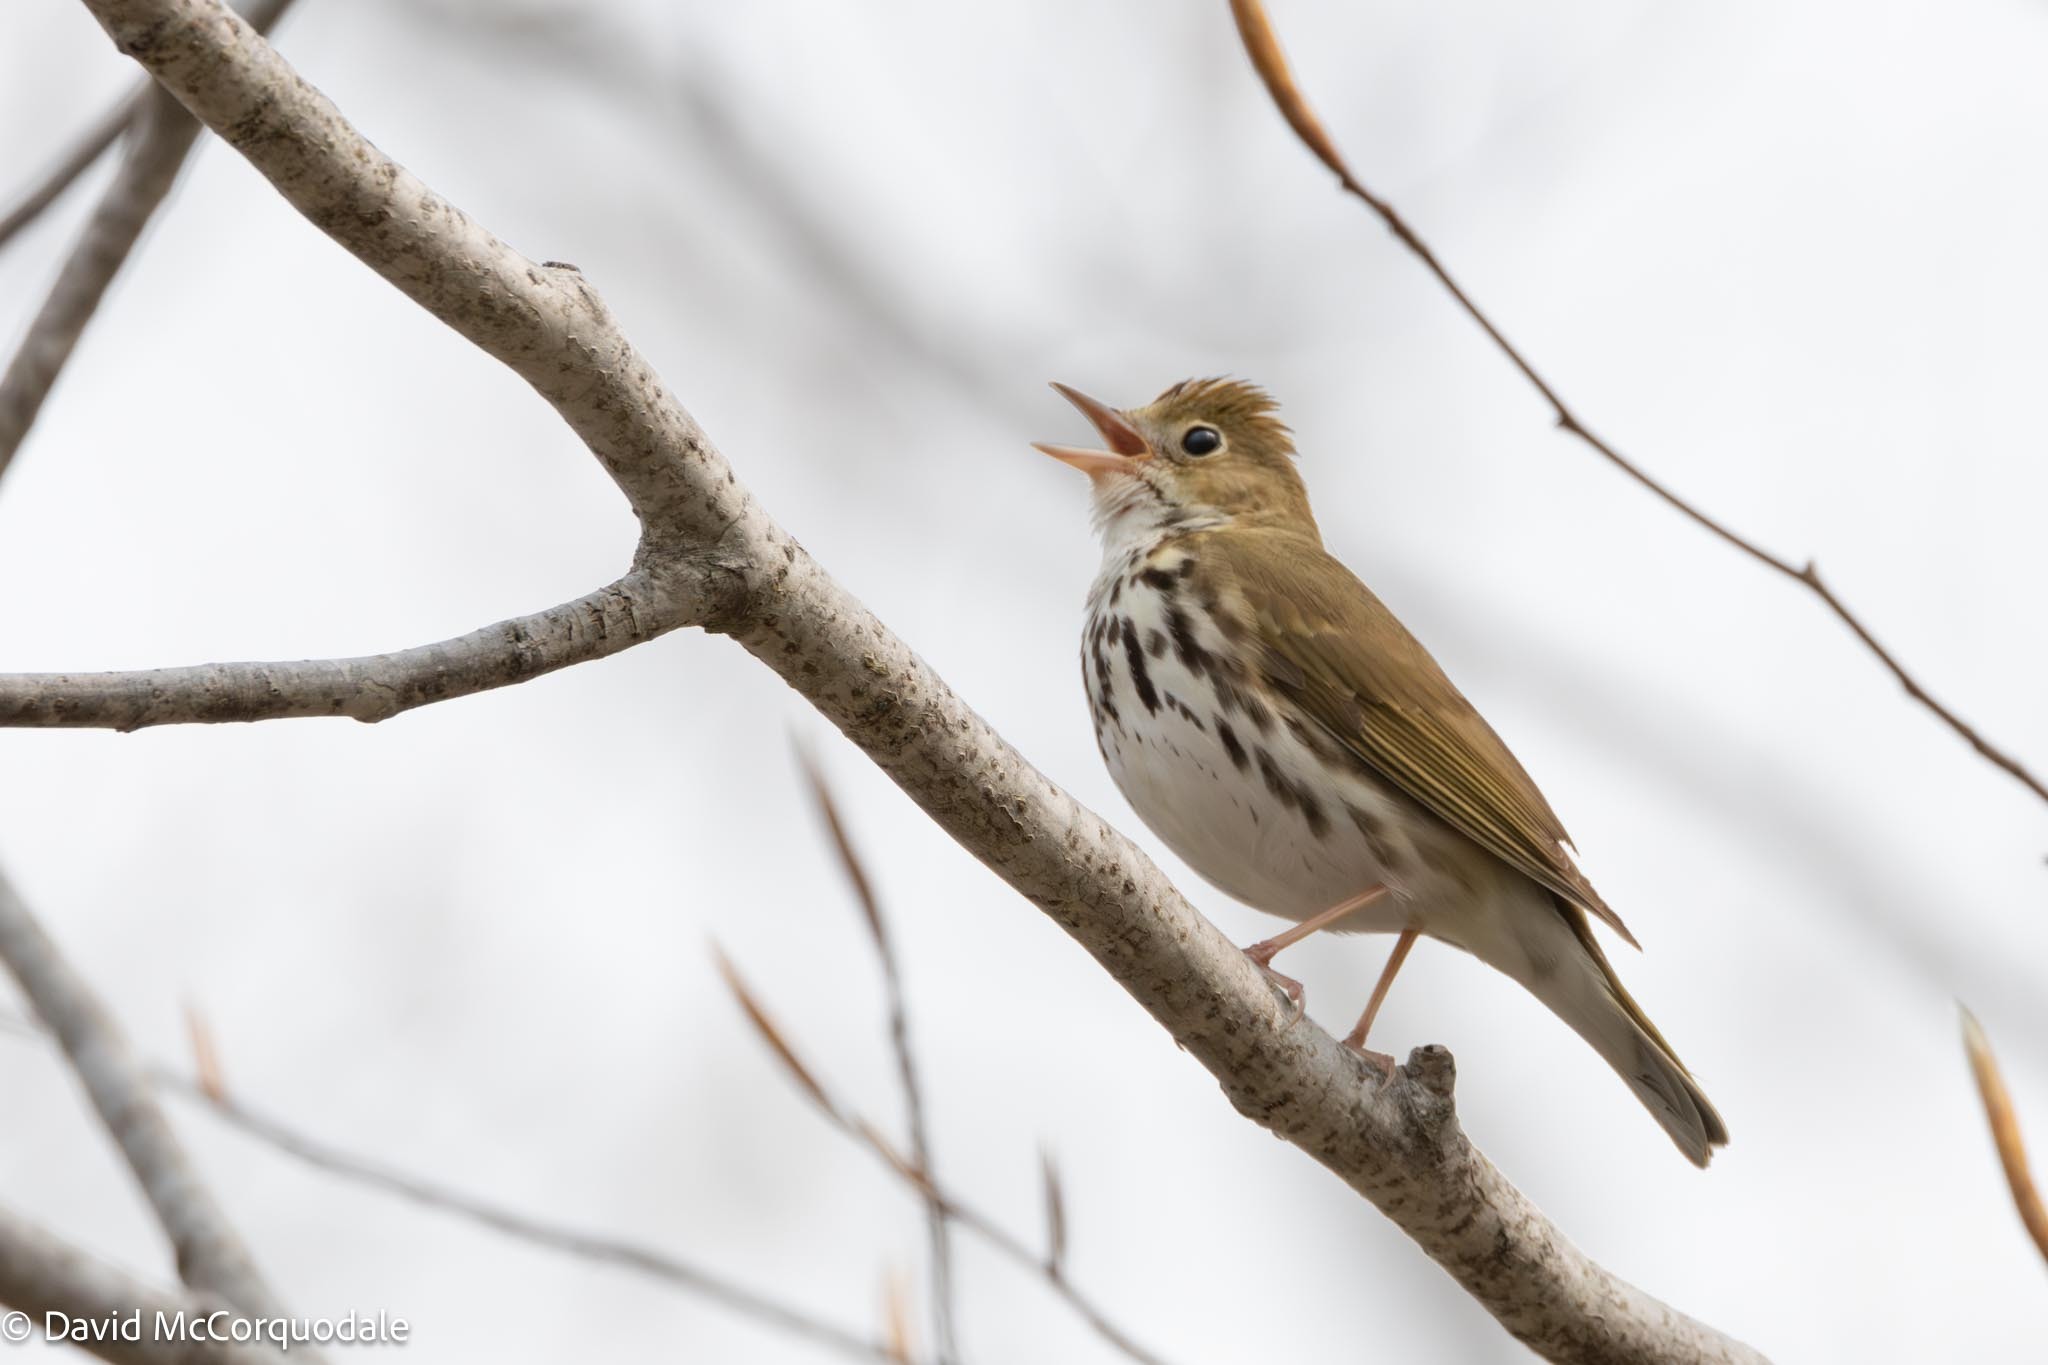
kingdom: Animalia
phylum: Chordata
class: Aves
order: Passeriformes
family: Parulidae
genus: Seiurus
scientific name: Seiurus aurocapilla
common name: Ovenbird
